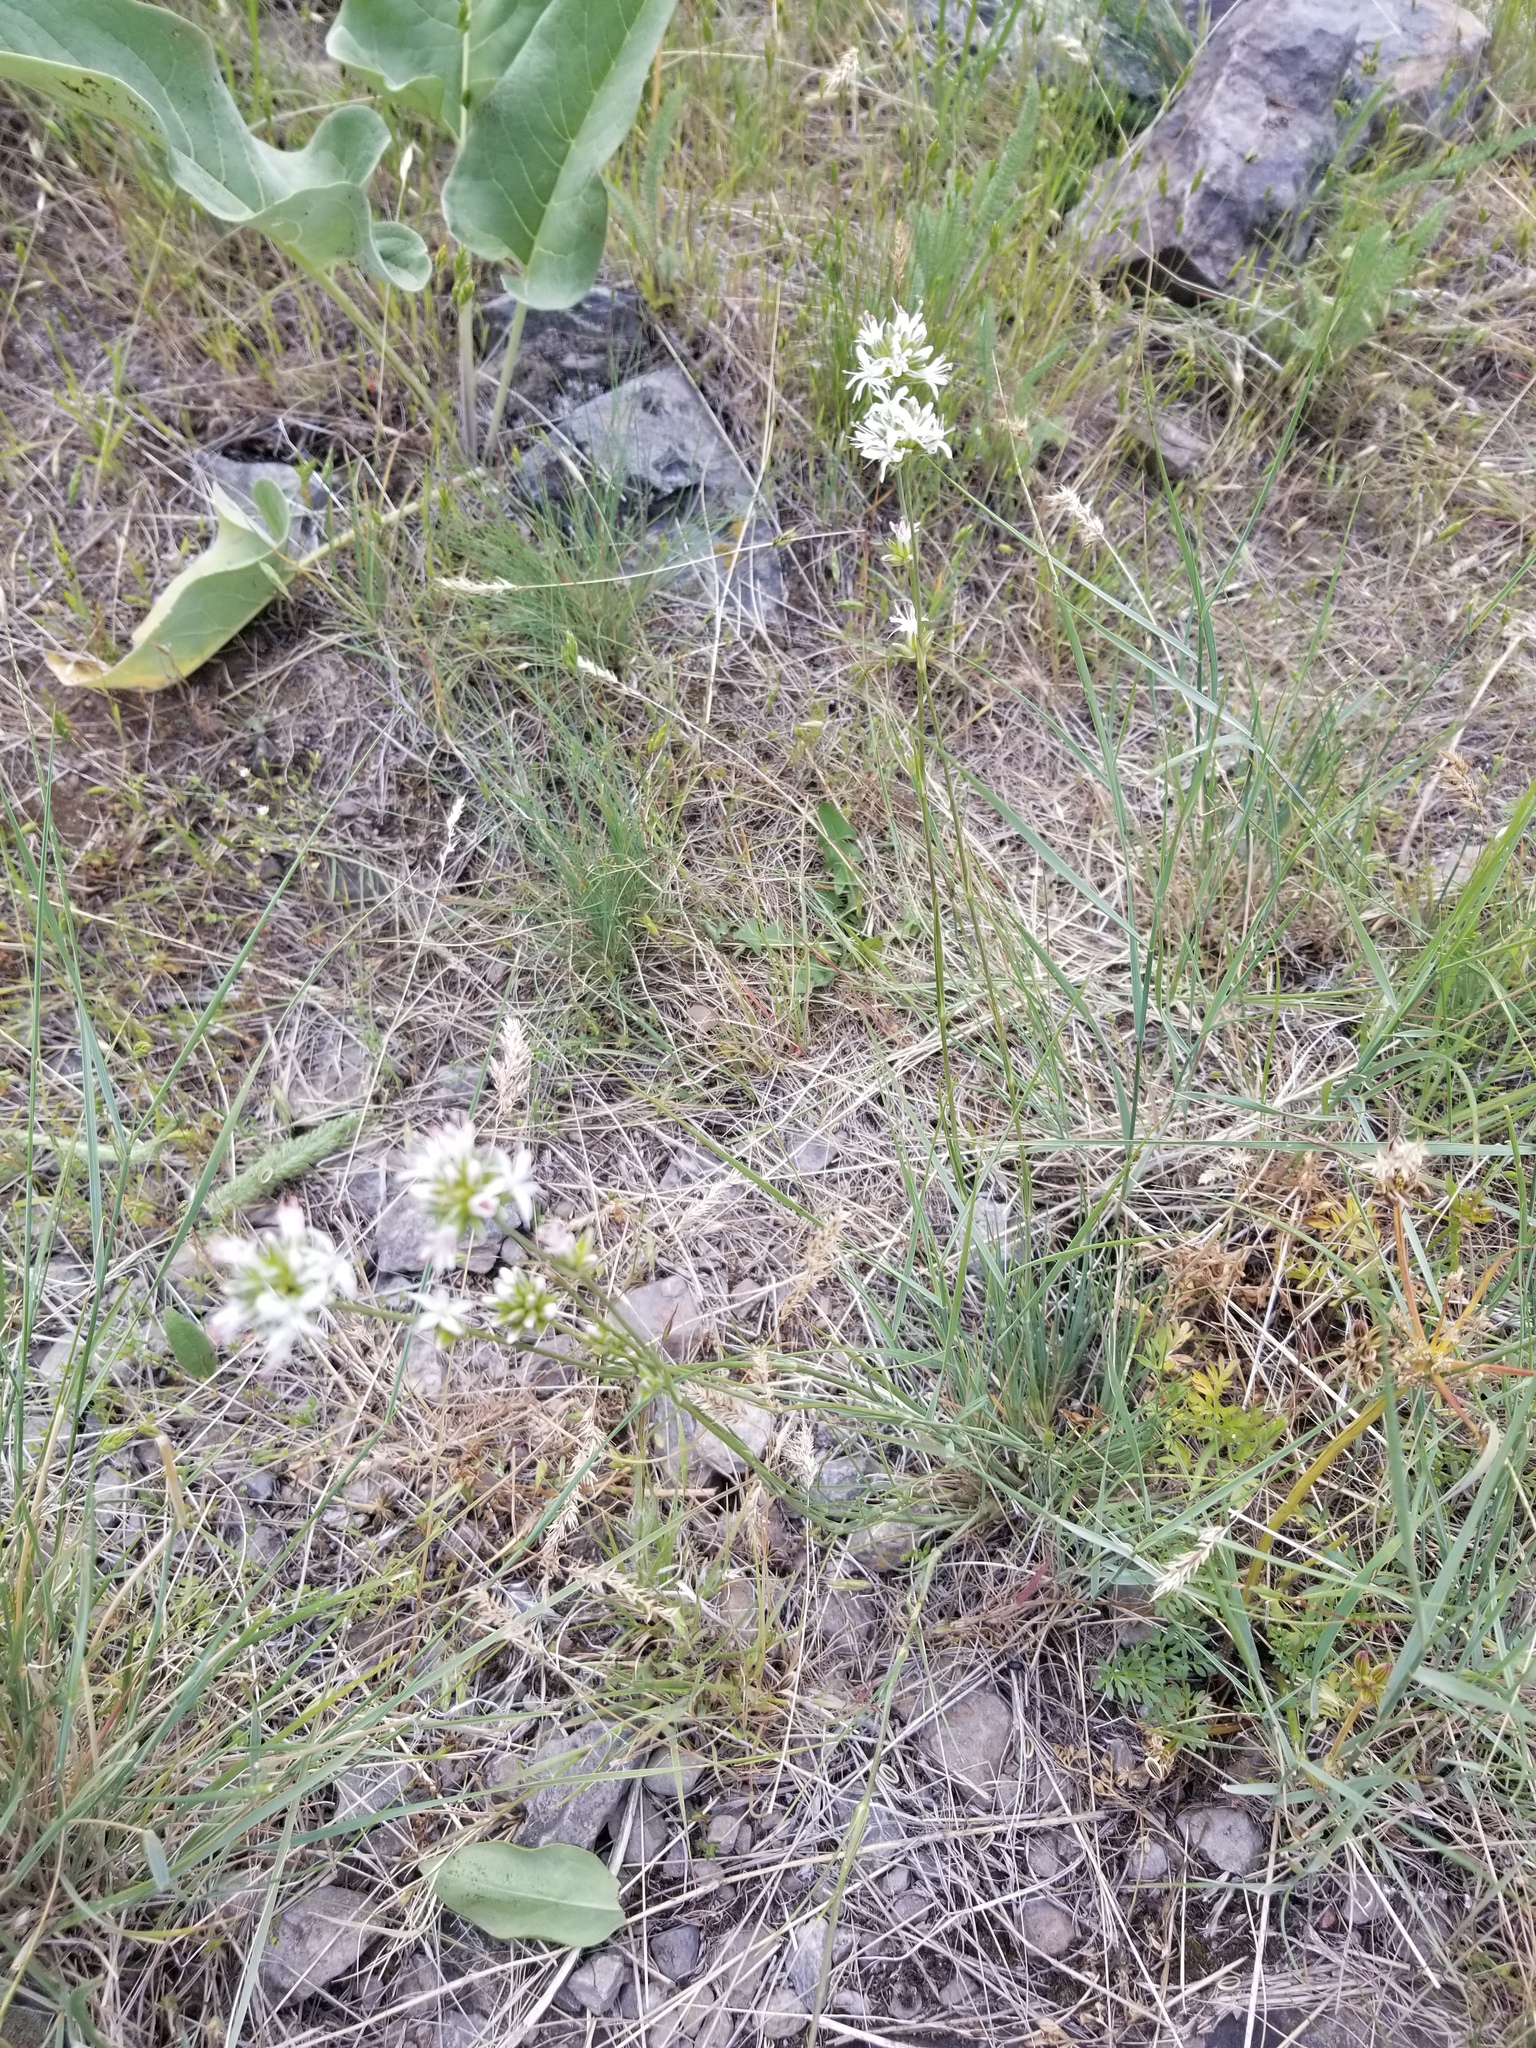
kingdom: Plantae
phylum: Tracheophyta
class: Magnoliopsida
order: Caryophyllales
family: Caryophyllaceae
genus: Eremogone
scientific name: Eremogone congesta
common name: Ballhead sandwort
